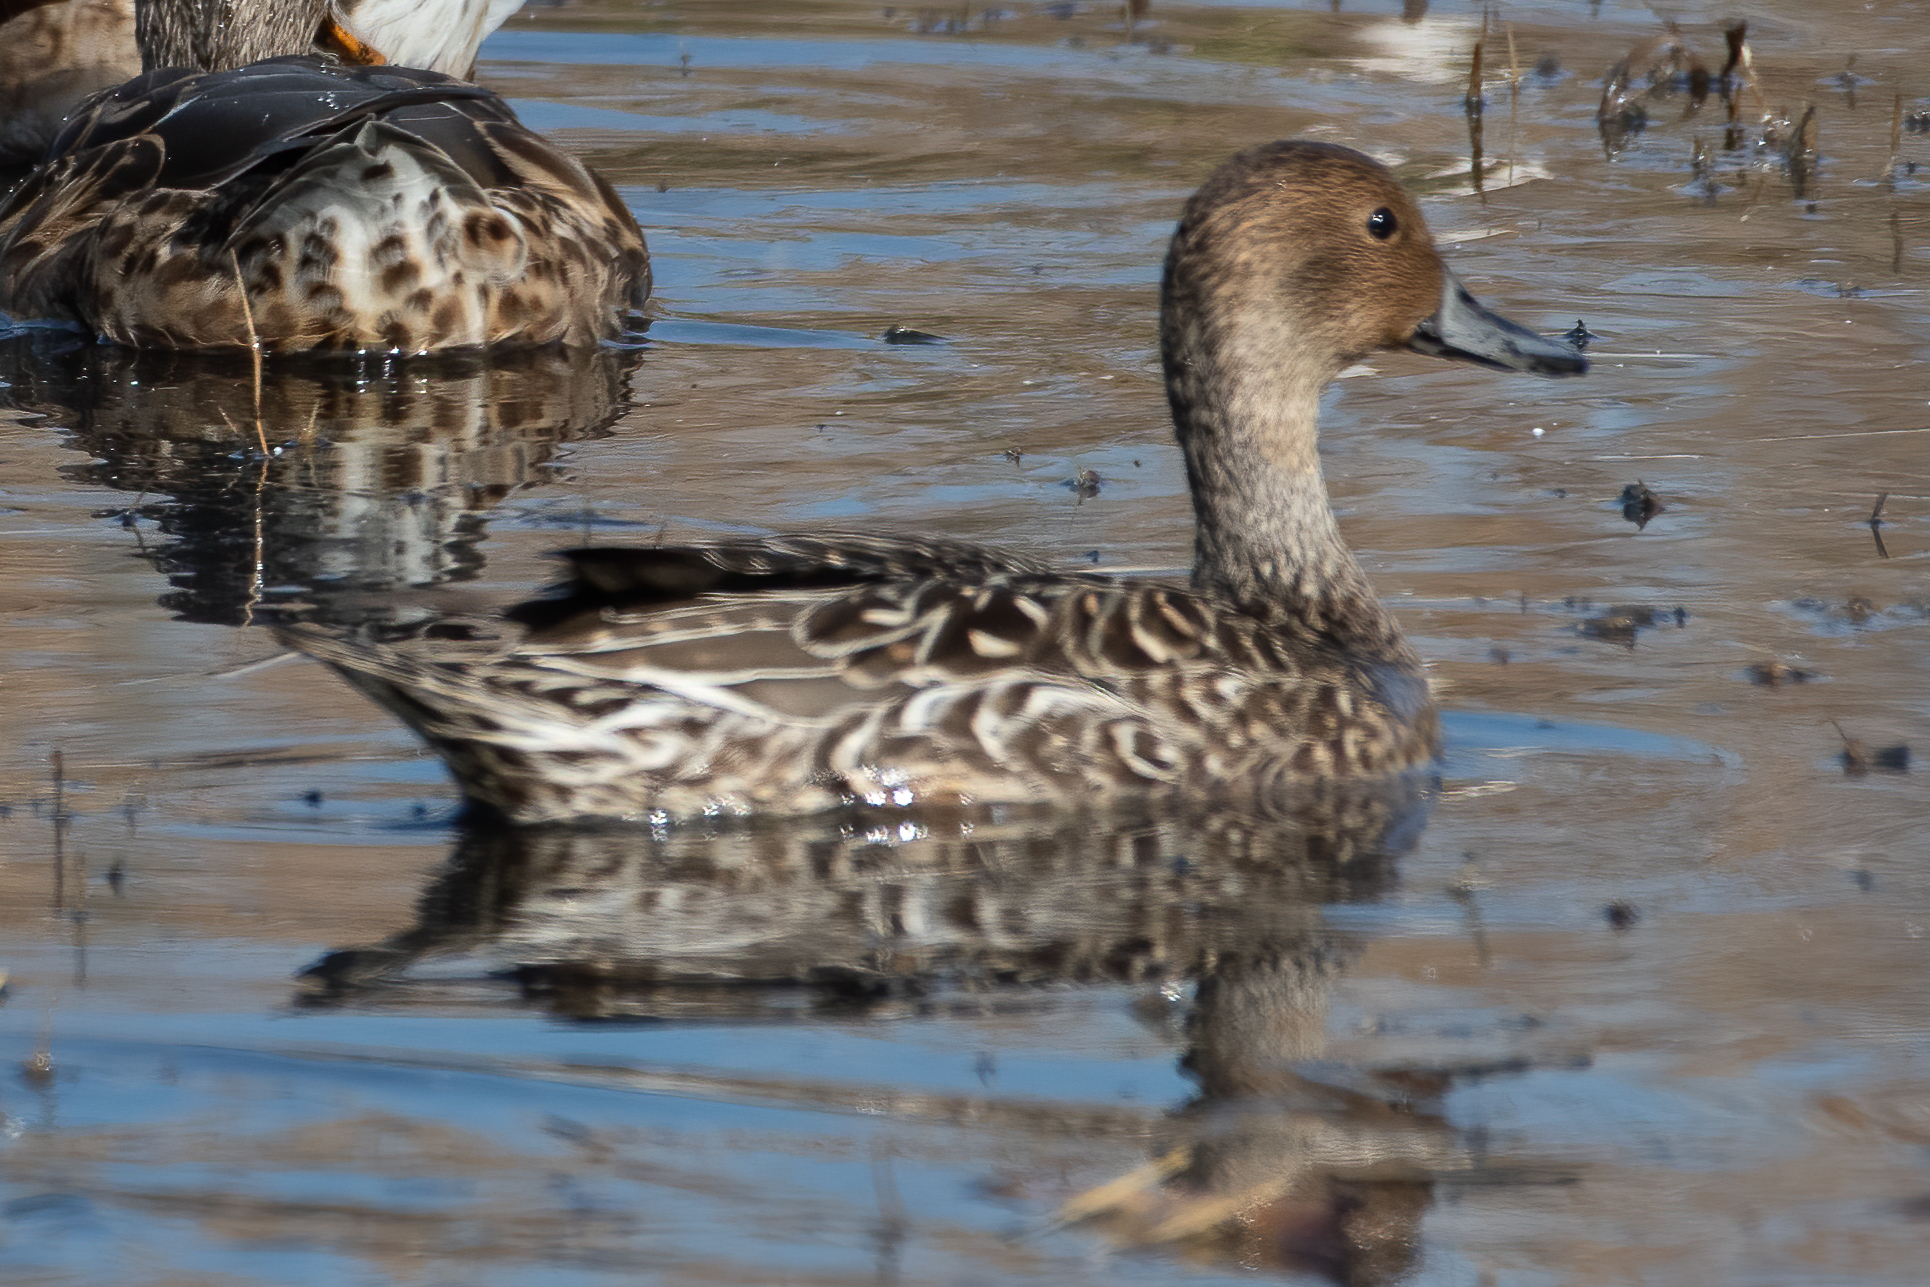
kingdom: Animalia
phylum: Chordata
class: Aves
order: Anseriformes
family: Anatidae
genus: Anas
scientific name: Anas acuta
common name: Northern pintail
